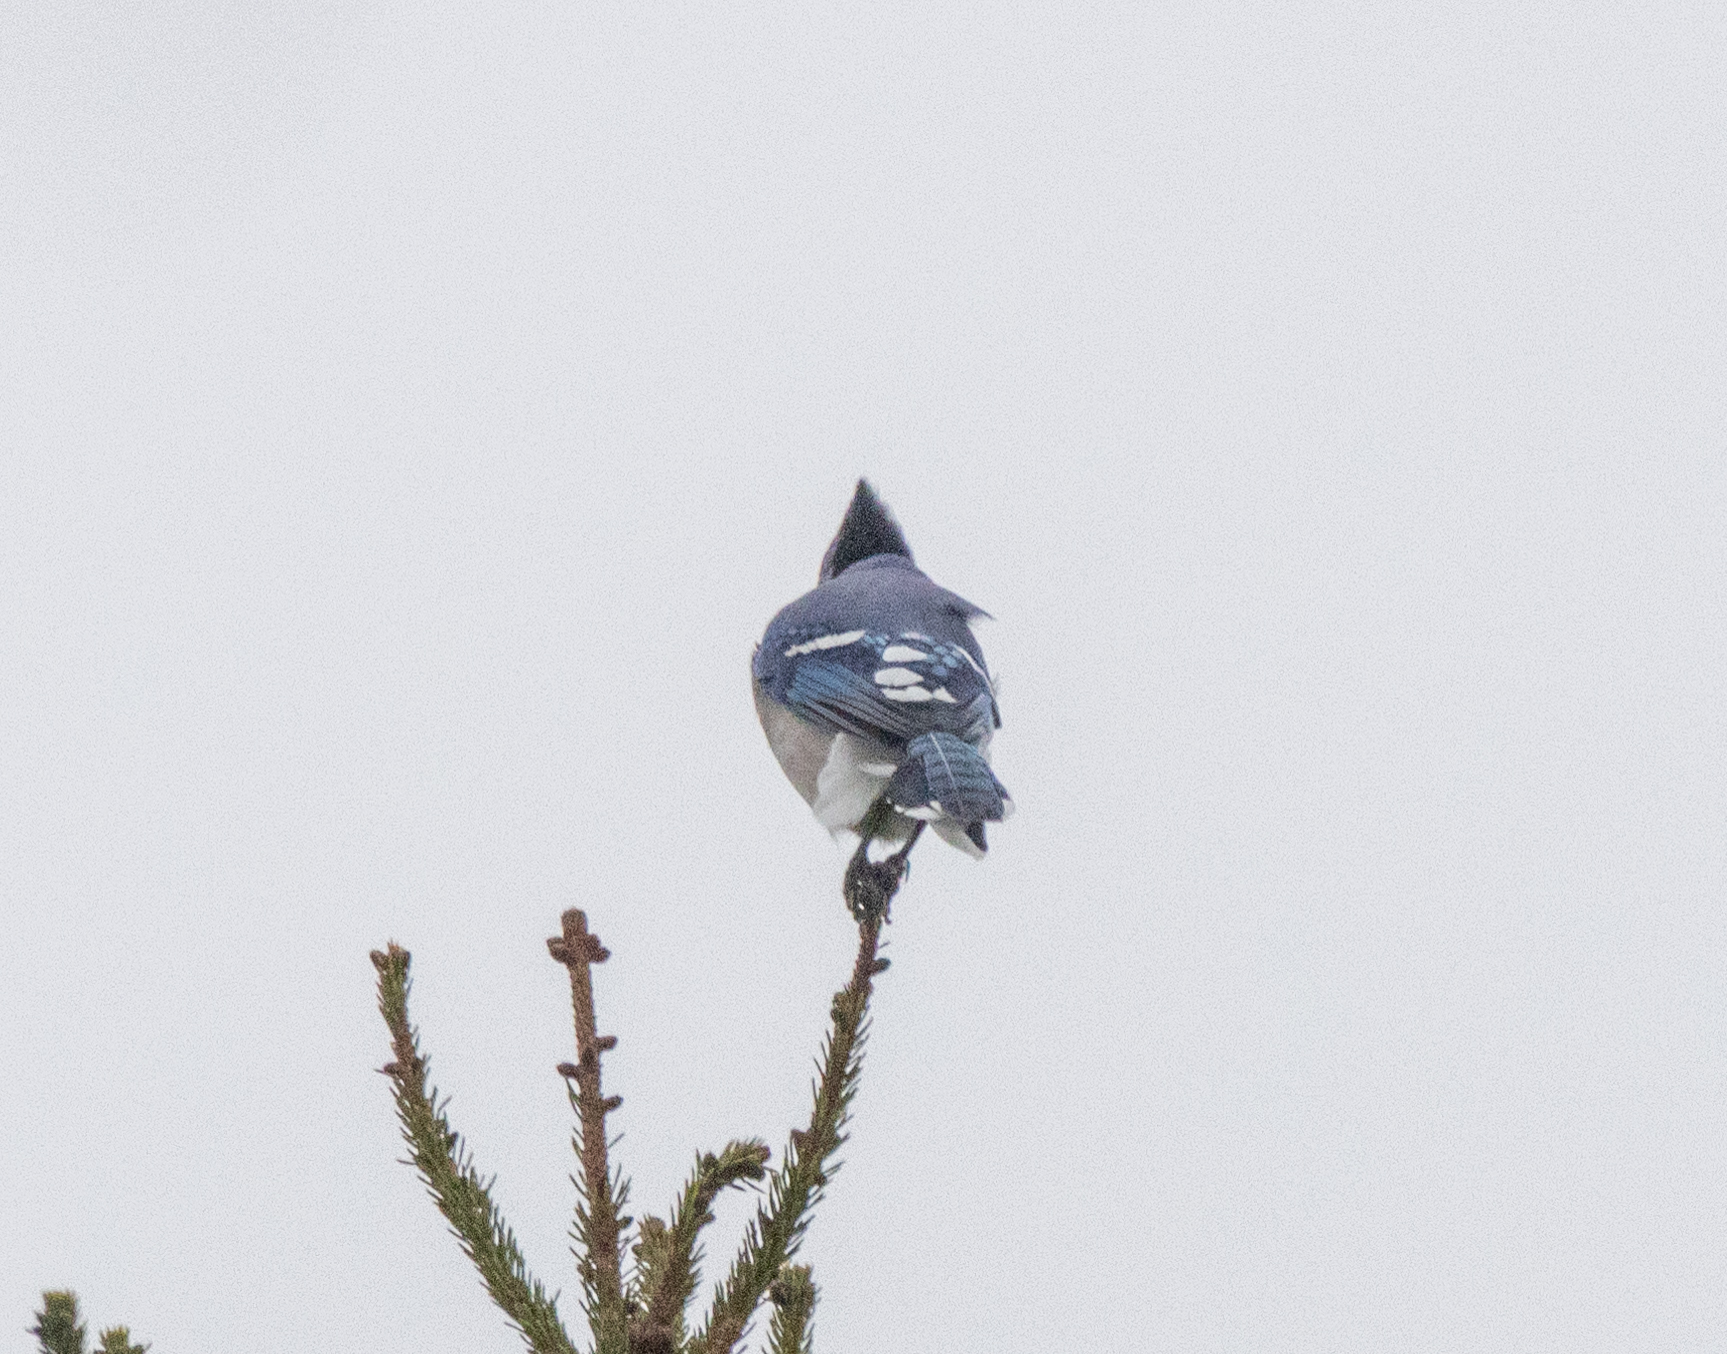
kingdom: Animalia
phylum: Chordata
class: Aves
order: Passeriformes
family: Corvidae
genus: Cyanocitta
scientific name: Cyanocitta cristata
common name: Blue jay
